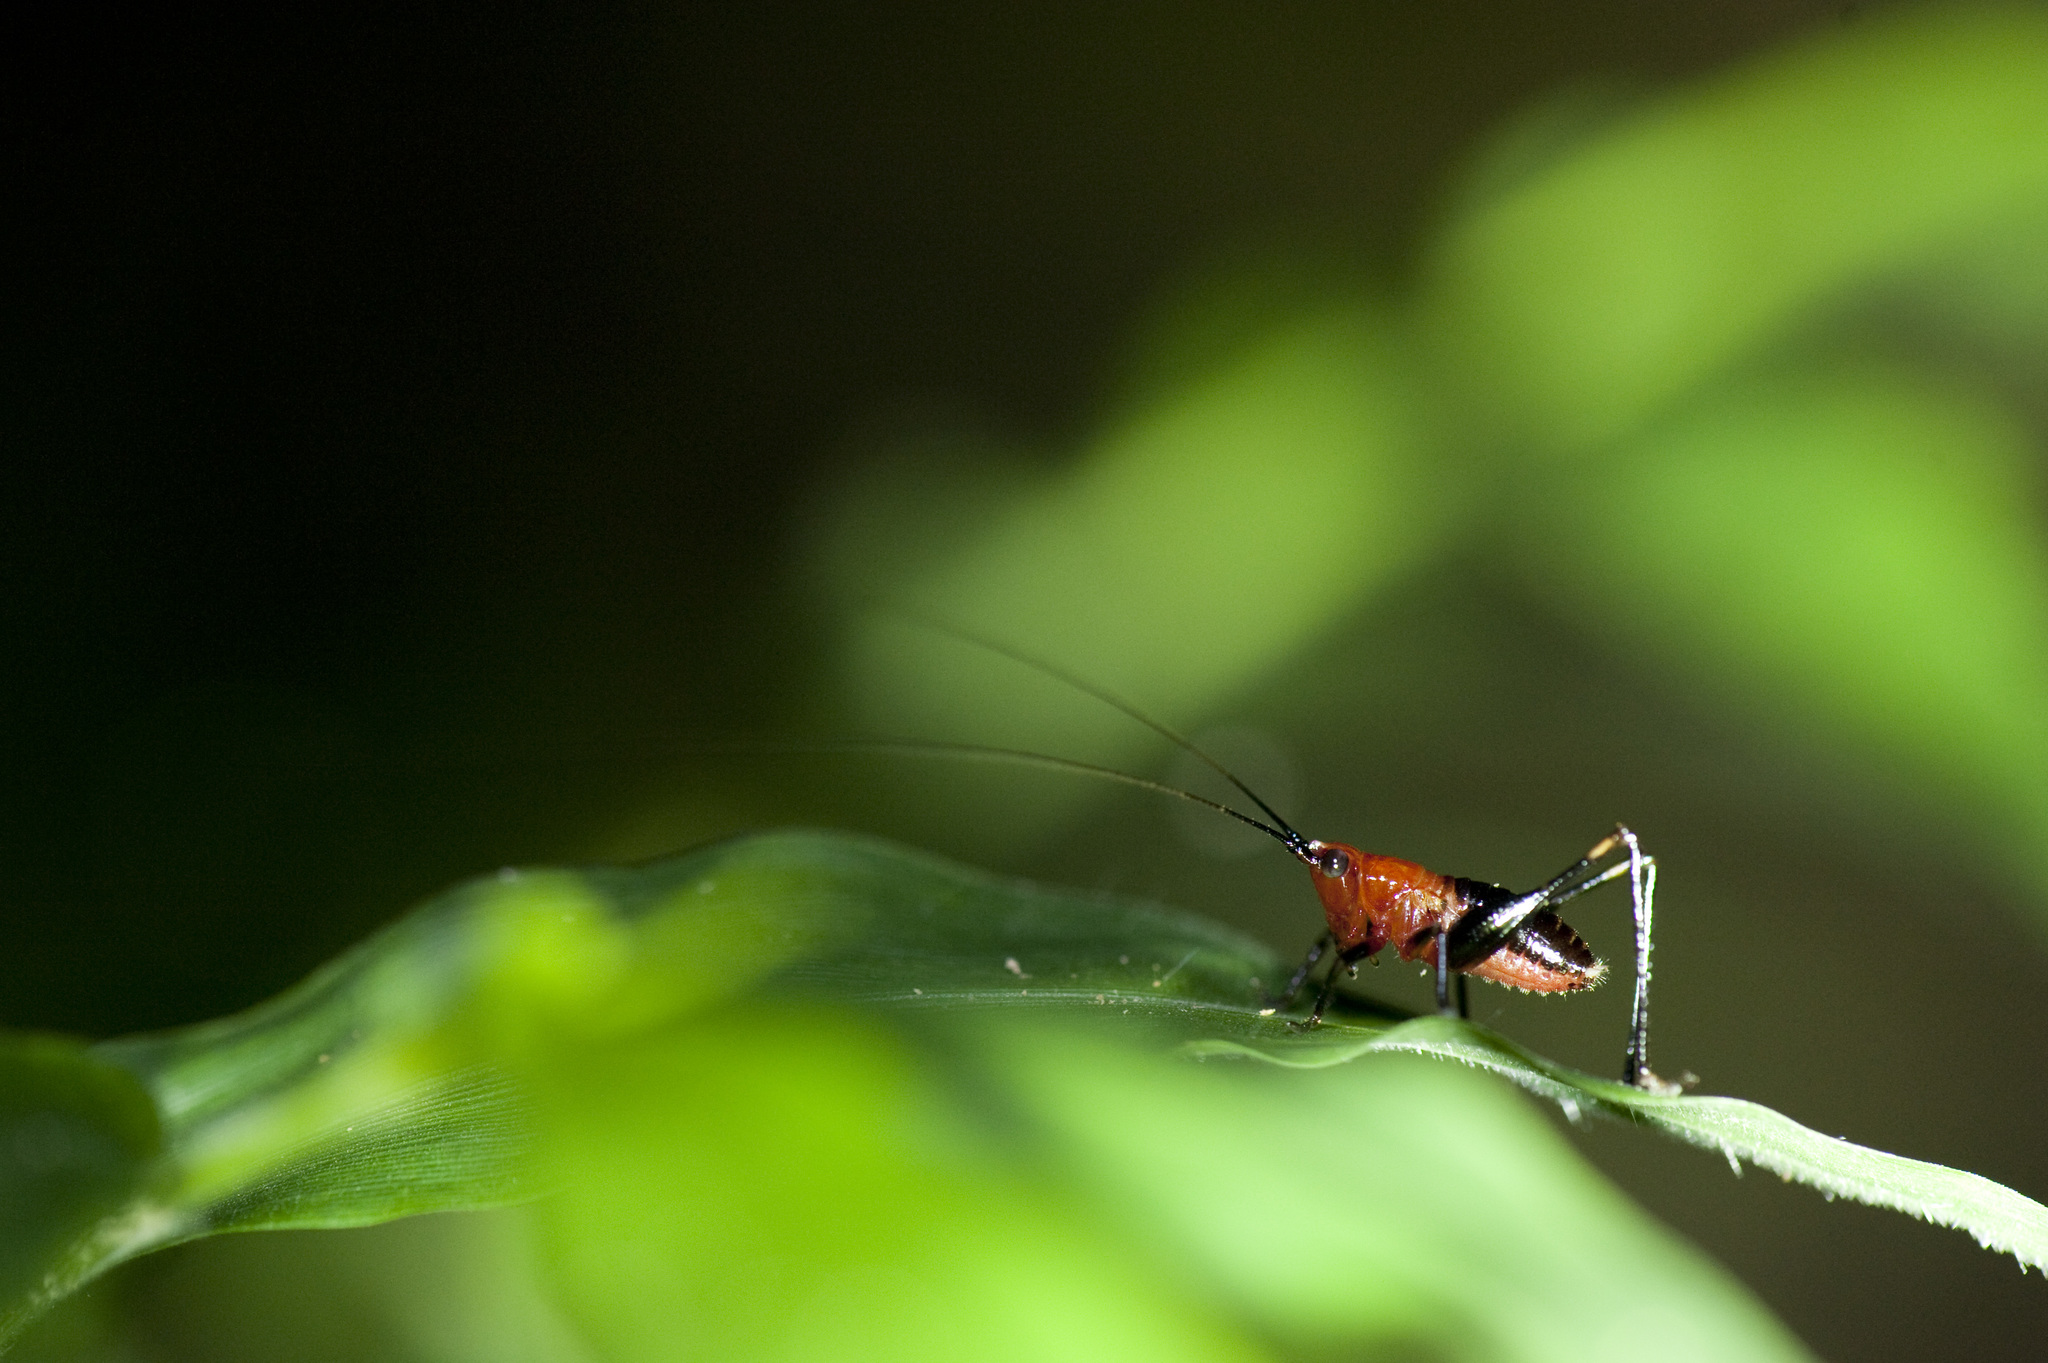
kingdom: Animalia
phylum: Arthropoda
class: Insecta
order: Orthoptera
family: Tettigoniidae
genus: Conocephalus
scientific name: Conocephalus melaenus
